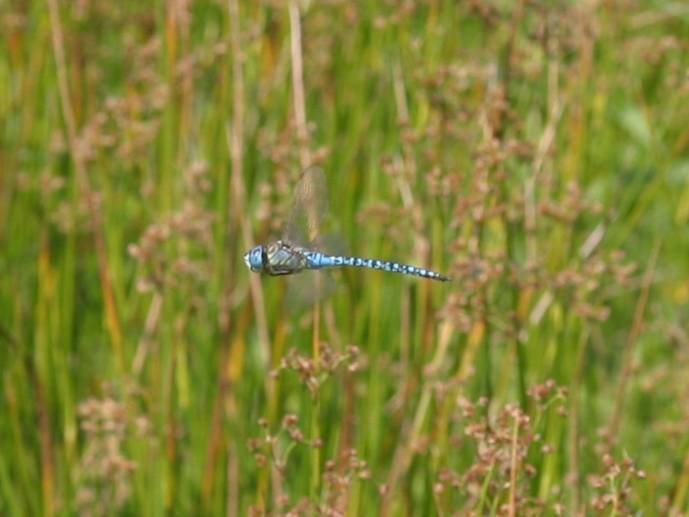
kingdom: Animalia
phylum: Arthropoda
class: Insecta
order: Odonata
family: Aeshnidae
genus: Aeshna
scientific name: Aeshna affinis
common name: Southern migrant hawker
